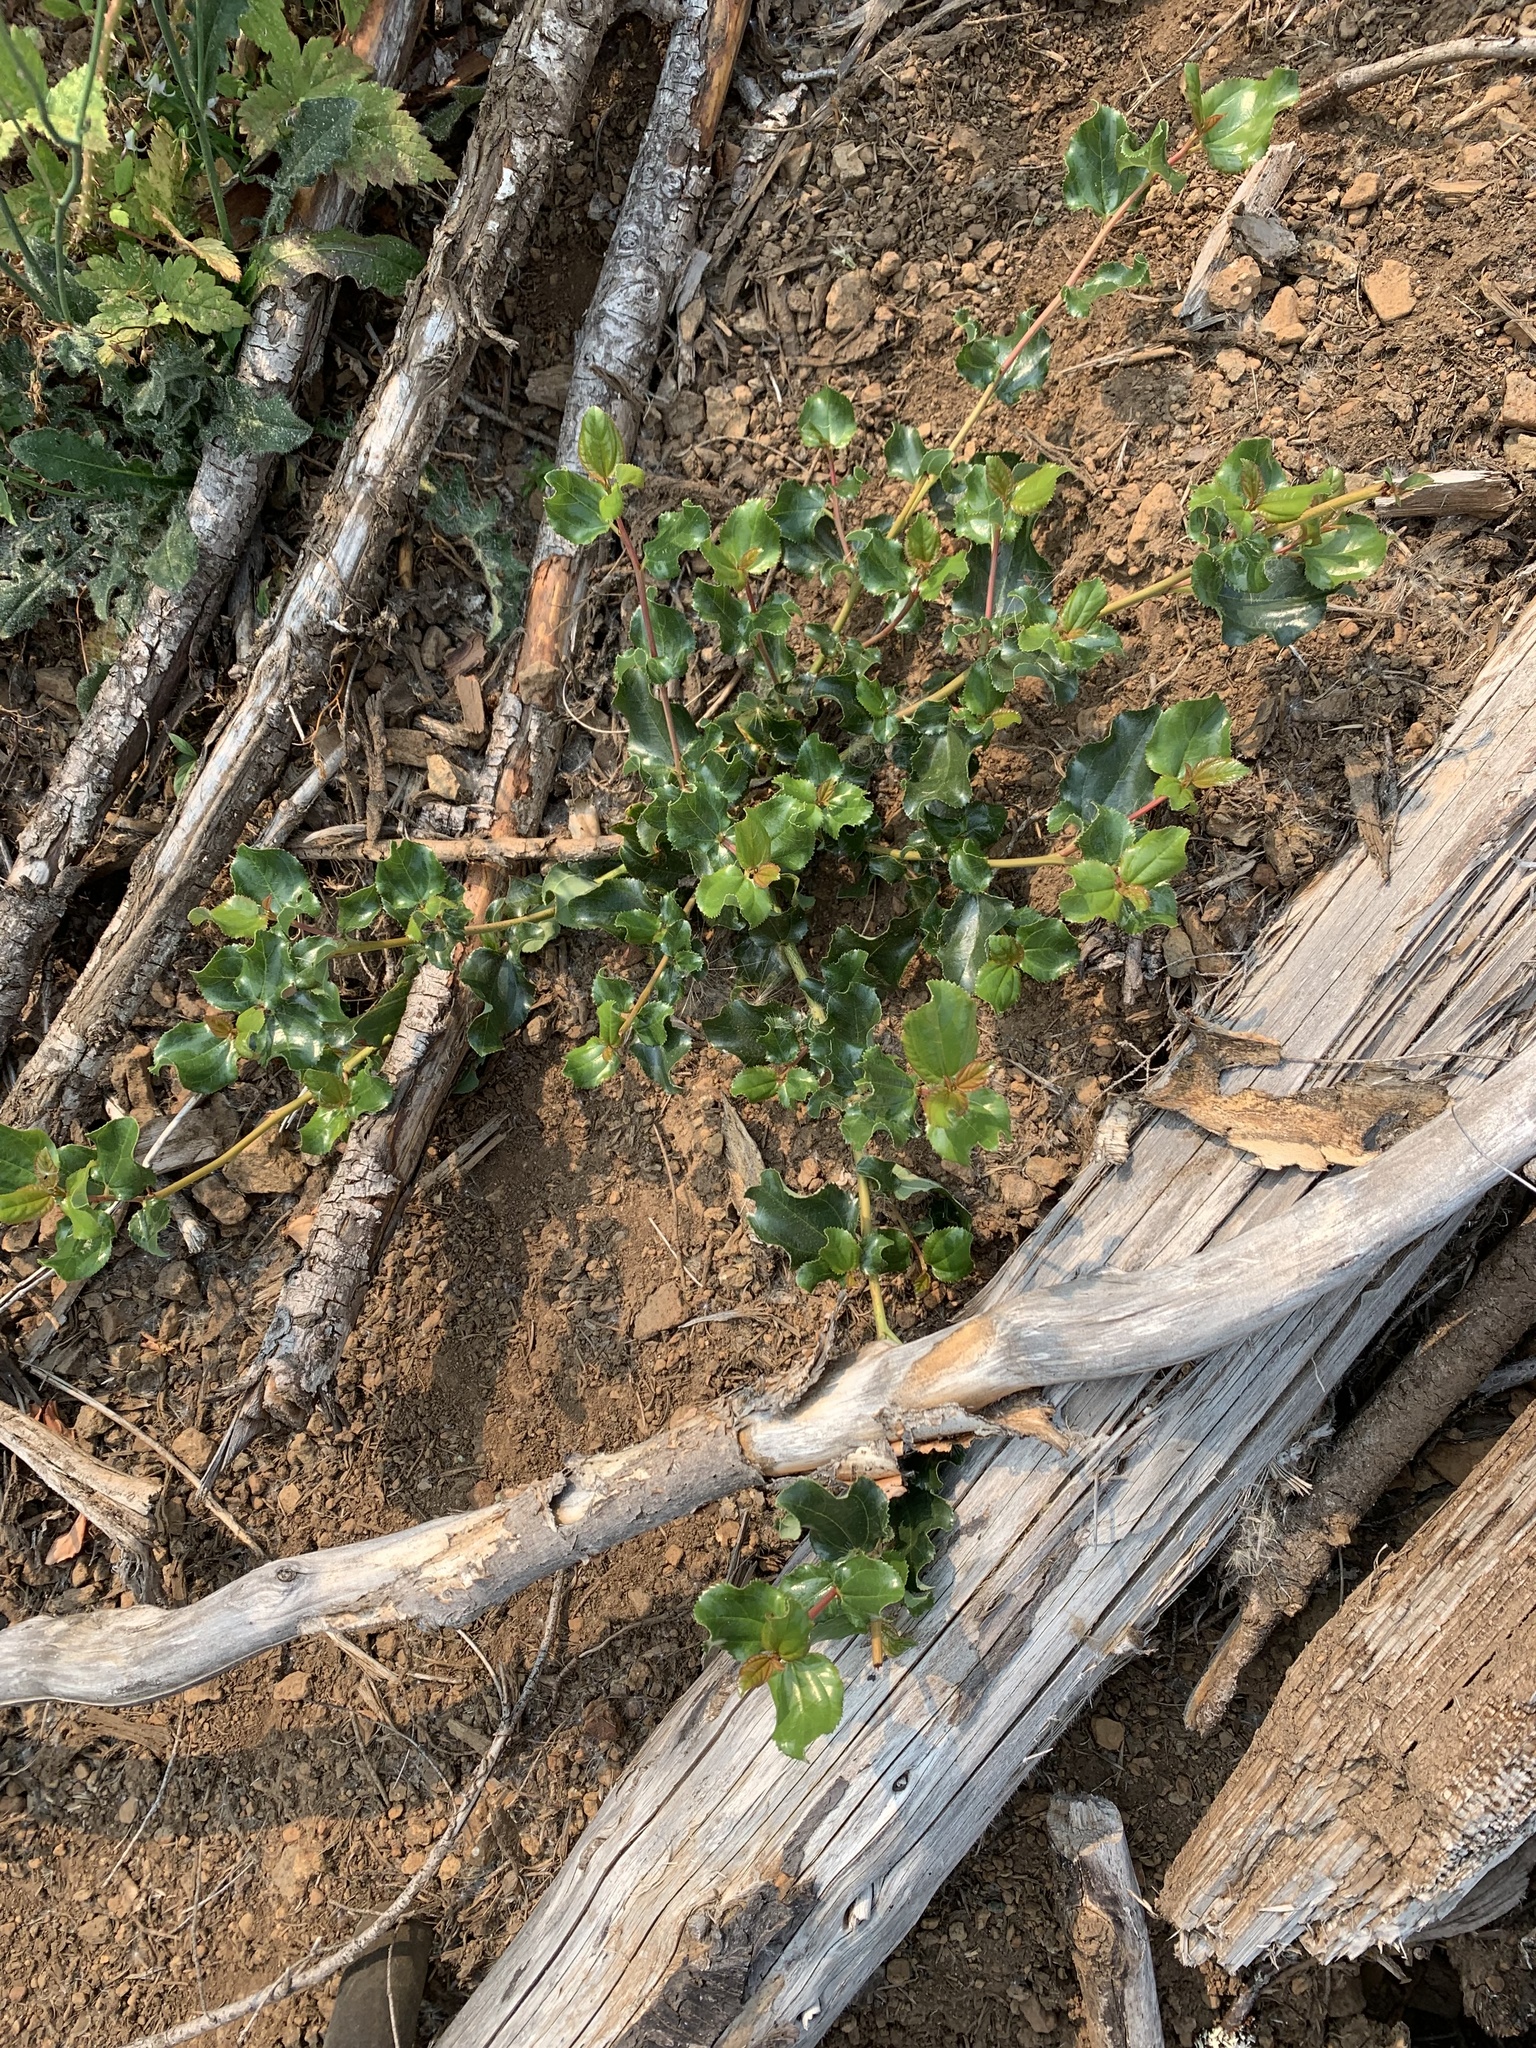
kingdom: Plantae
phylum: Tracheophyta
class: Magnoliopsida
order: Rosales
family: Rhamnaceae
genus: Ceanothus
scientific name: Ceanothus velutinus
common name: Snowbrush
